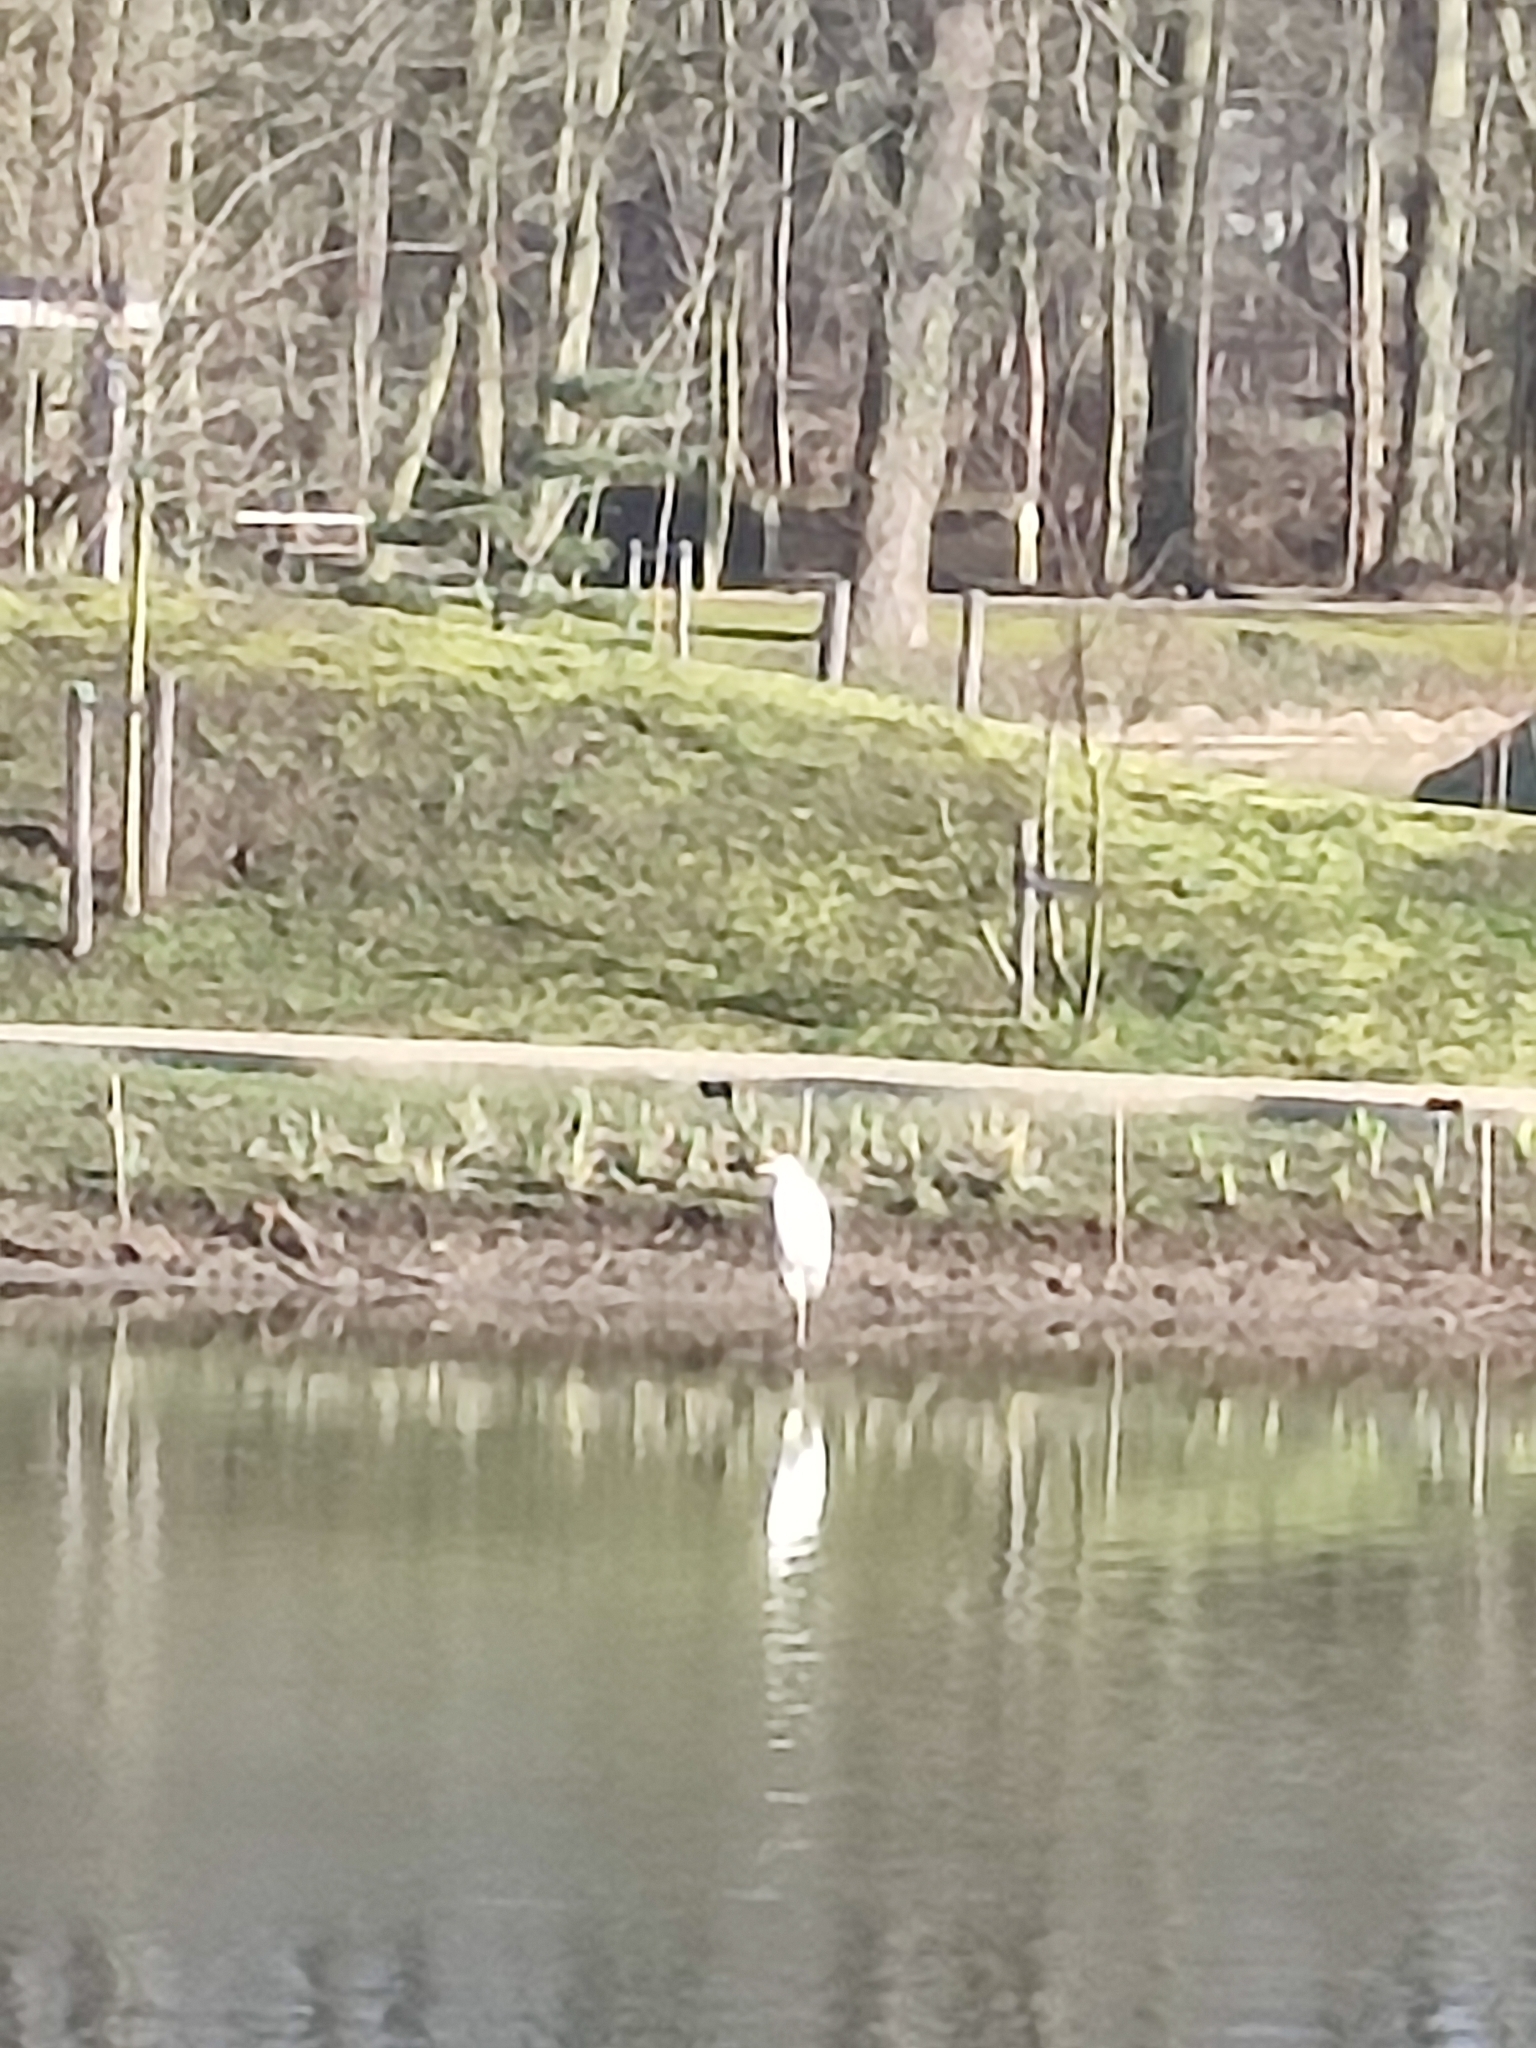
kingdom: Animalia
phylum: Chordata
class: Aves
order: Pelecaniformes
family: Ardeidae
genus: Ardea
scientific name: Ardea alba
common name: Great egret
